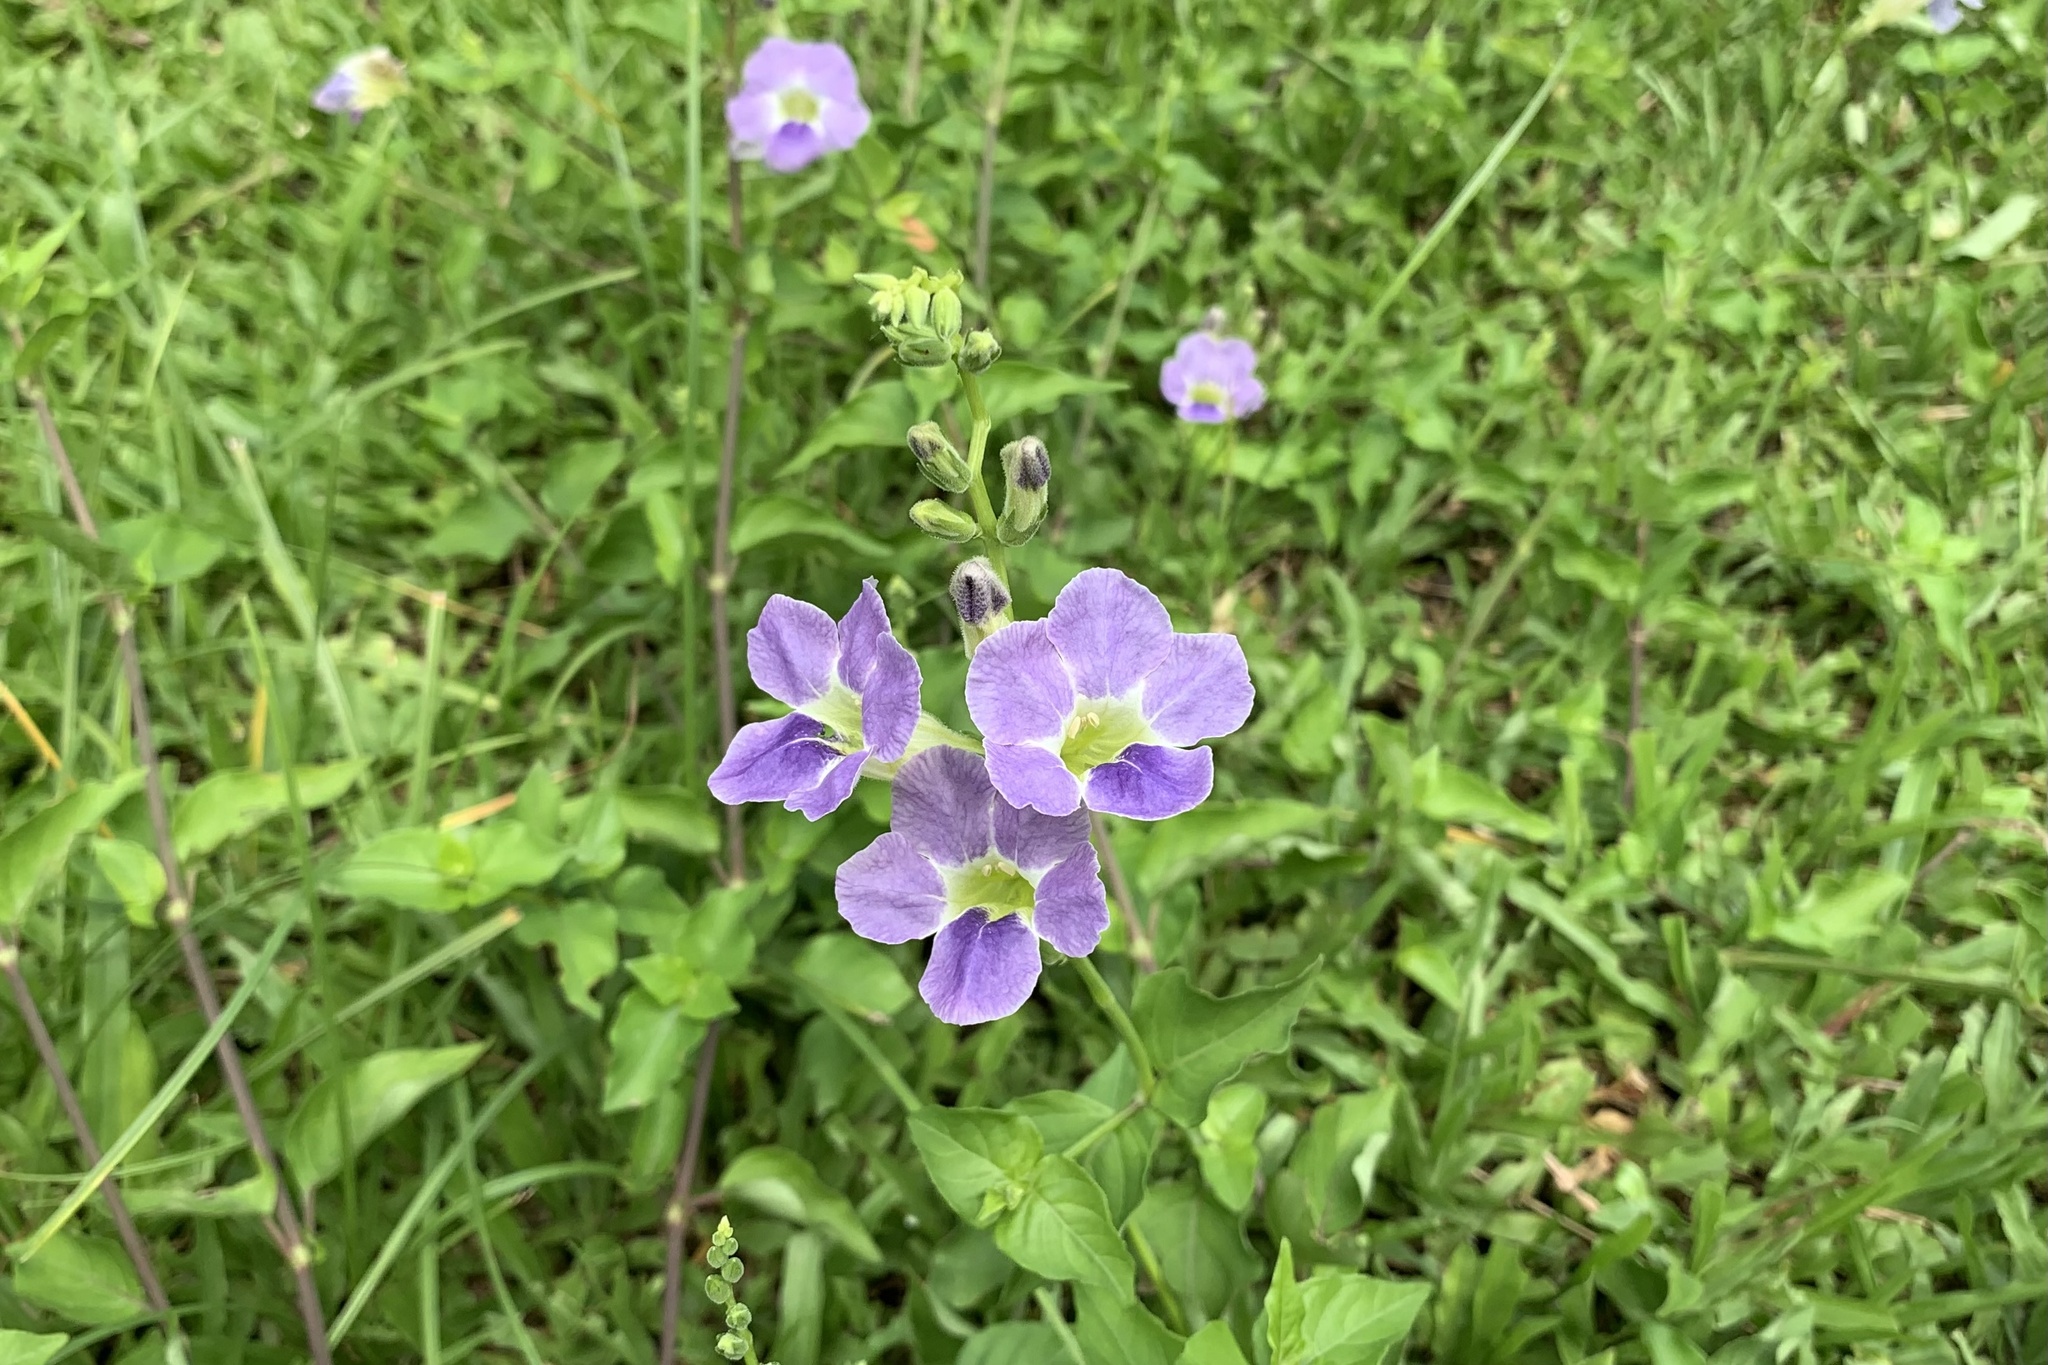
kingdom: Plantae
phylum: Tracheophyta
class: Magnoliopsida
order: Lamiales
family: Acanthaceae
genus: Asystasia
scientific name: Asystasia gangetica
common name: Chinese violet
